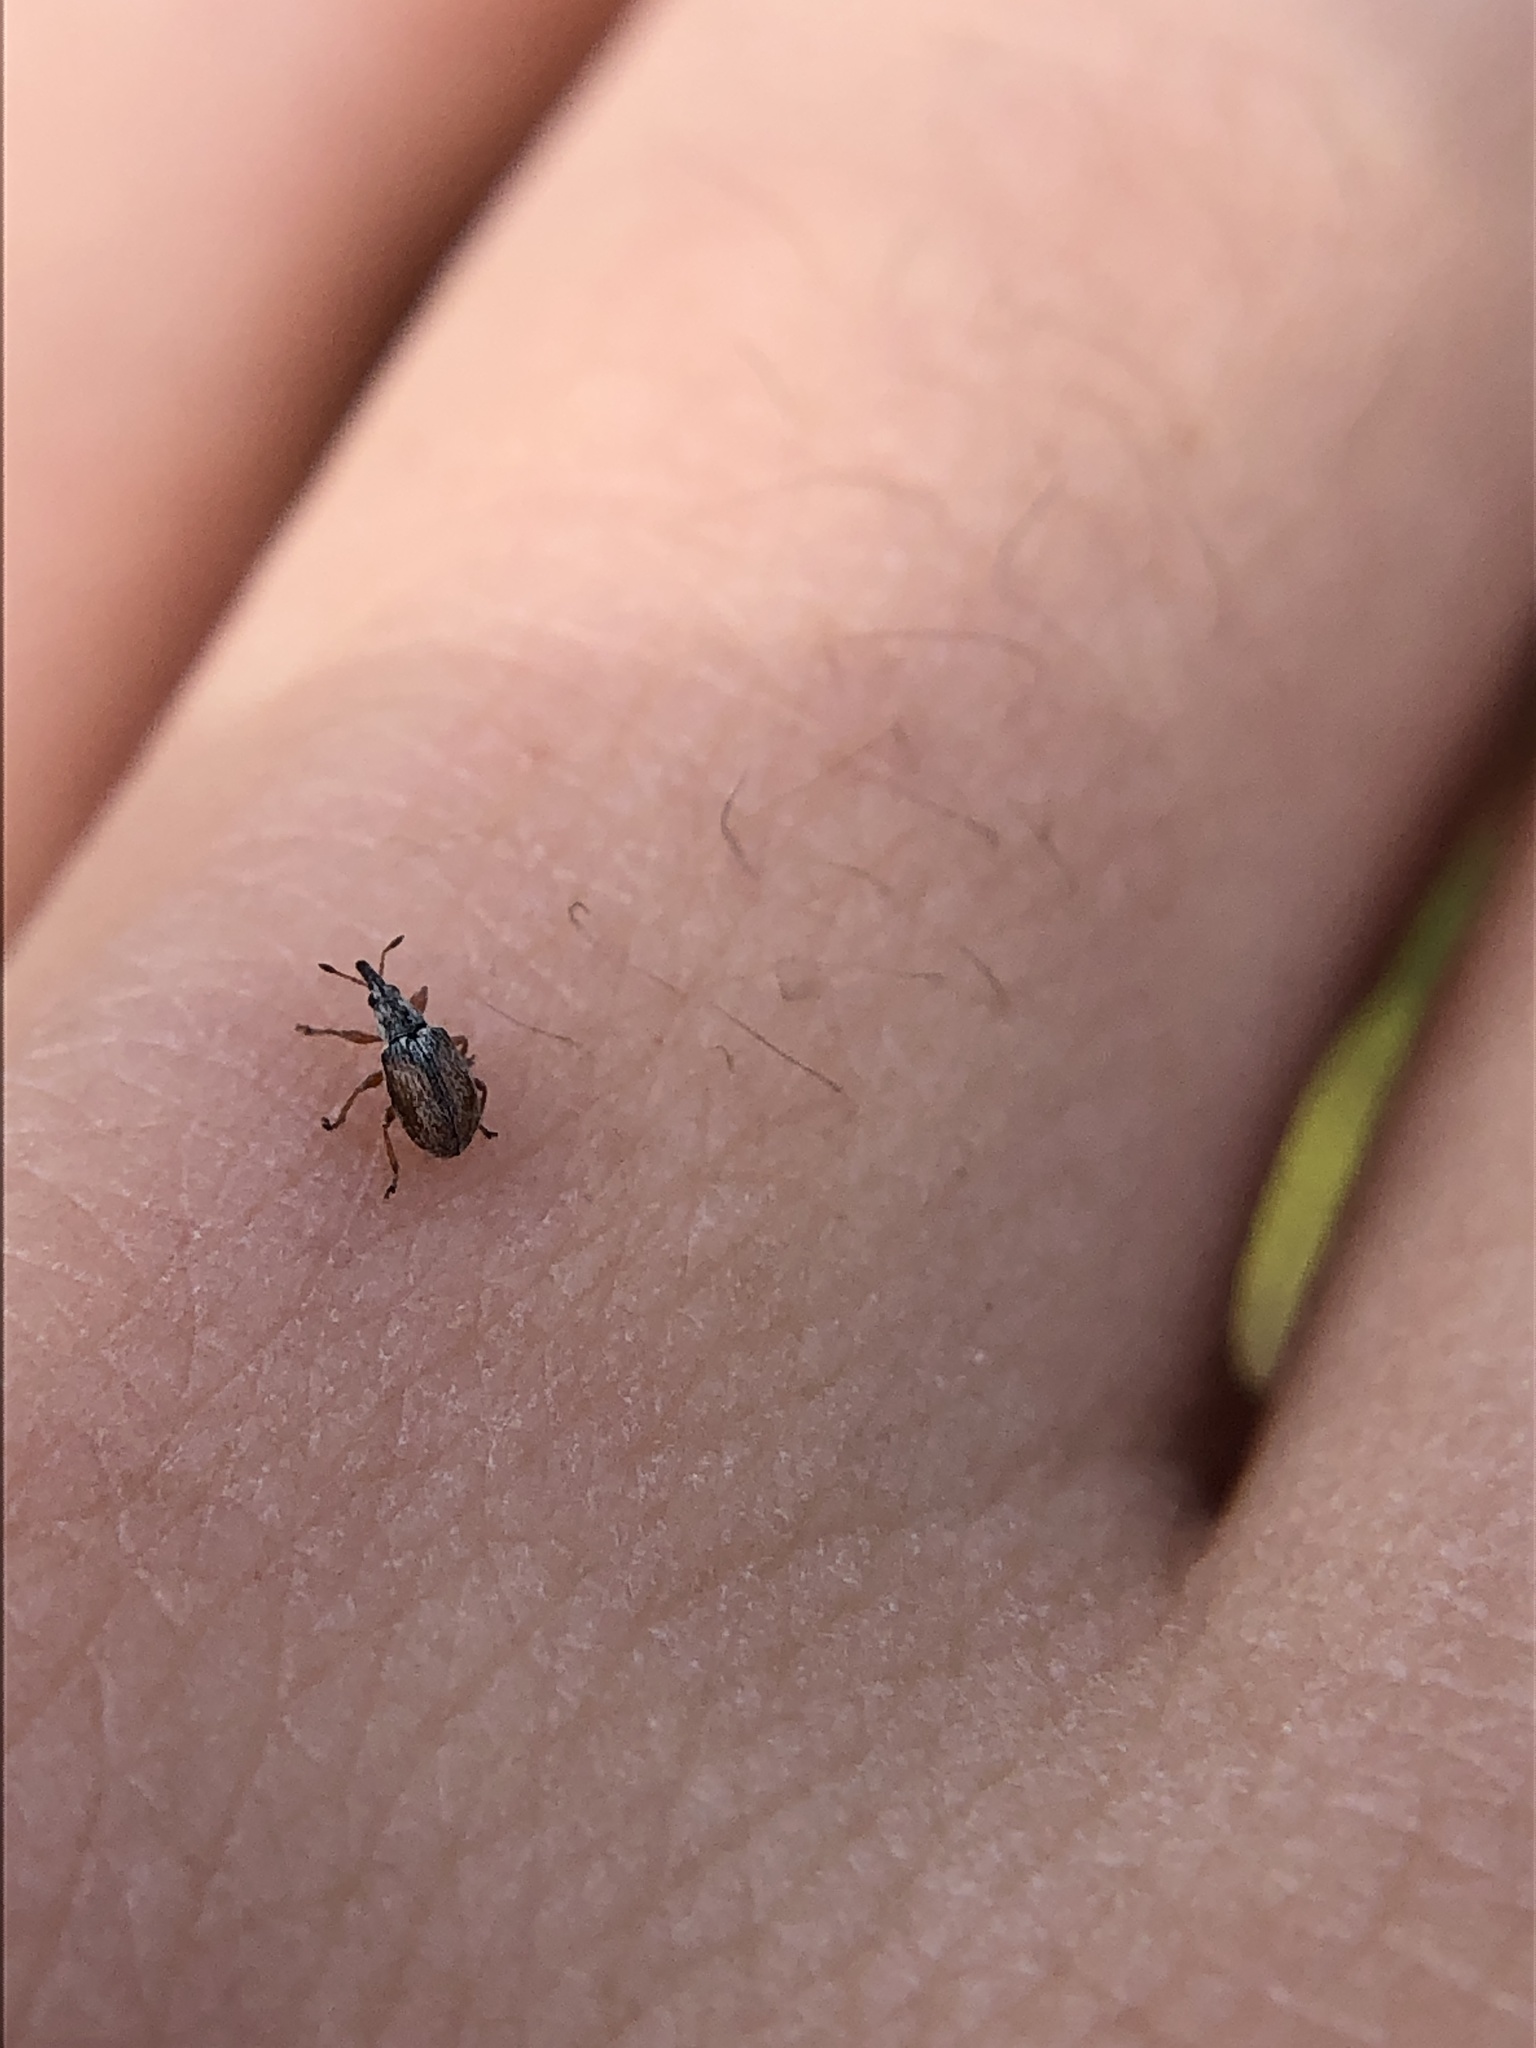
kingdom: Animalia
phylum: Arthropoda
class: Insecta
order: Coleoptera
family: Apionidae
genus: Malvapion
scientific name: Malvapion malvae
